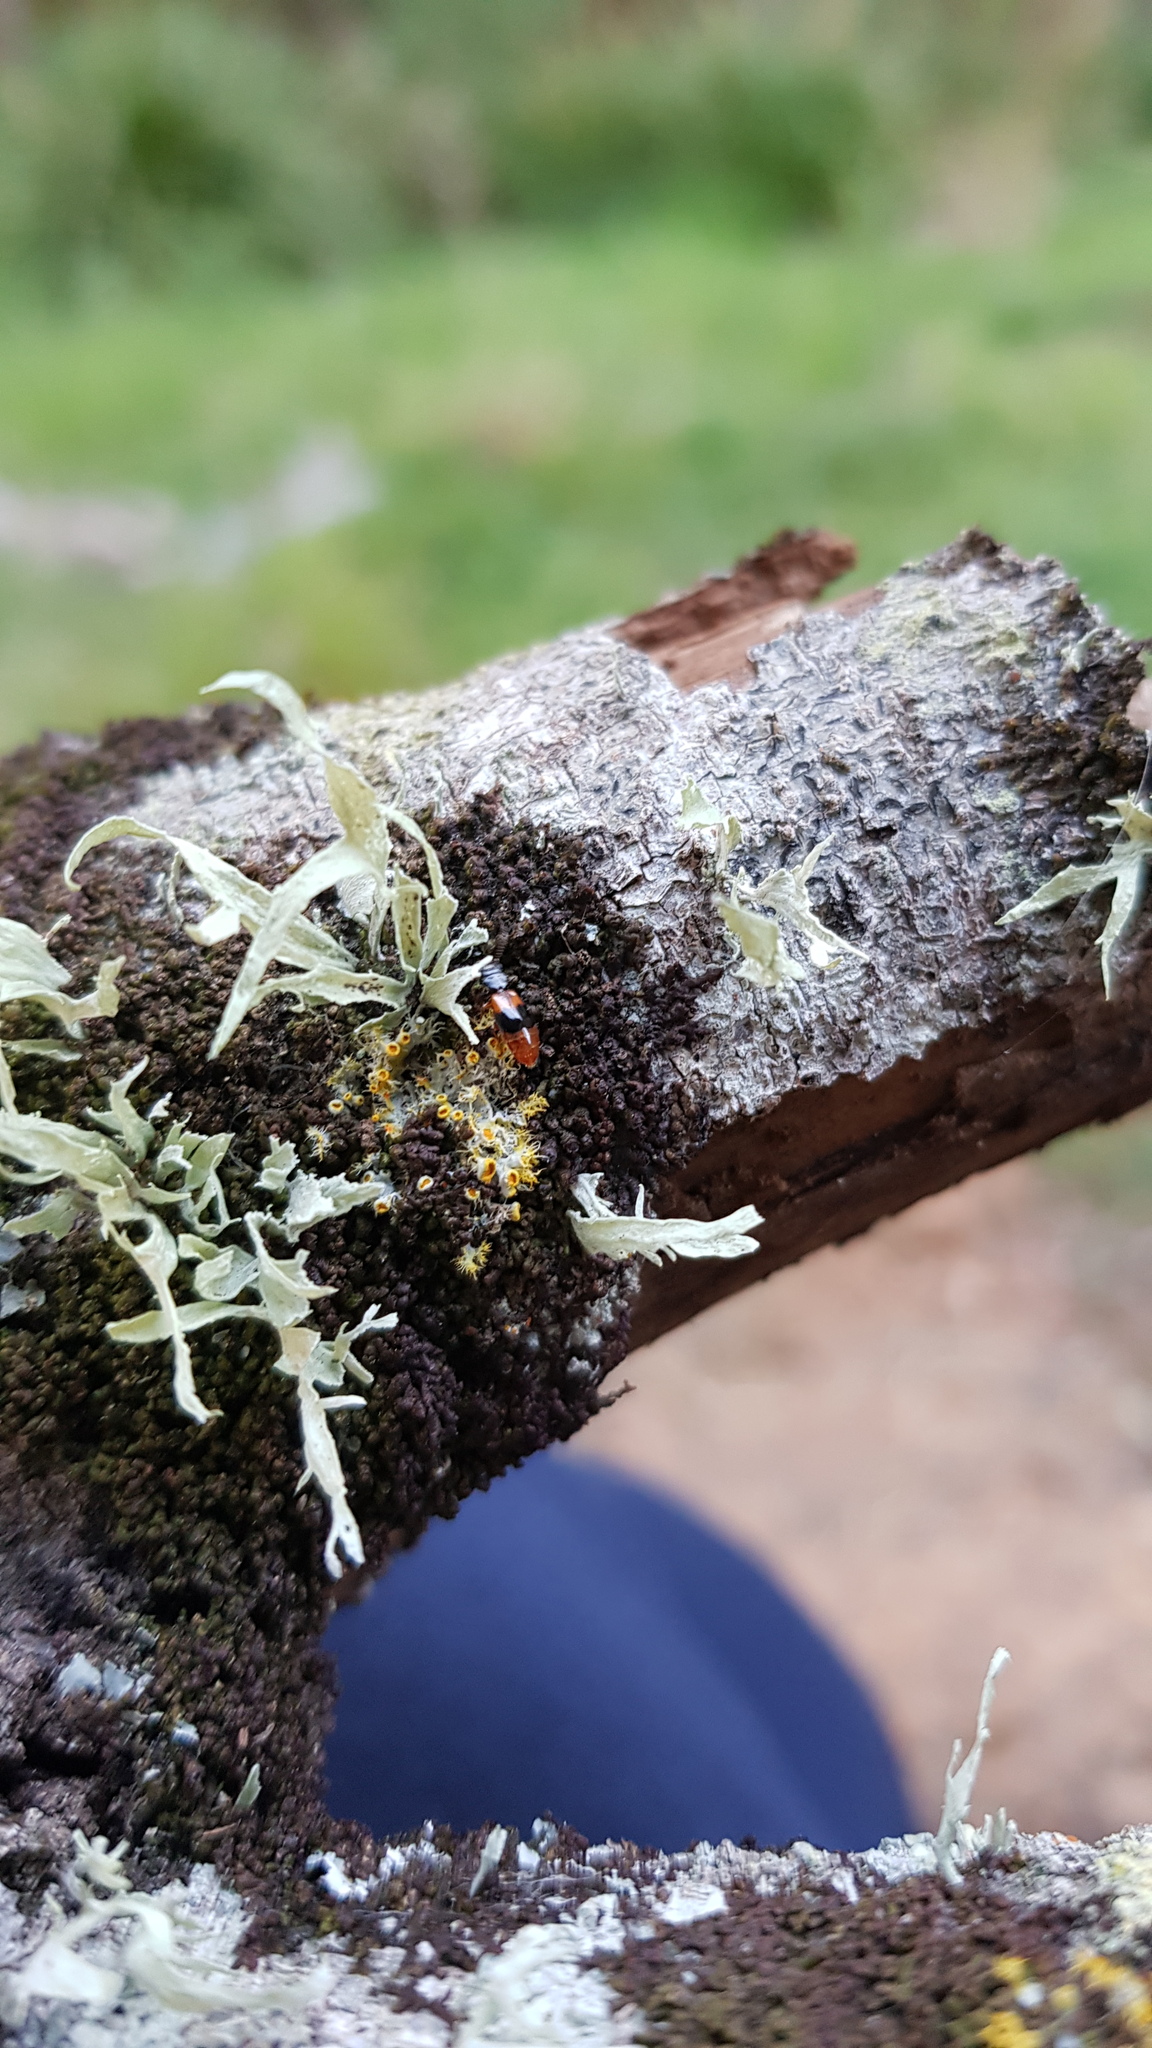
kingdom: Animalia
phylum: Arthropoda
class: Insecta
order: Coleoptera
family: Salpingidae
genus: Euryplatus
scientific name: Euryplatus
